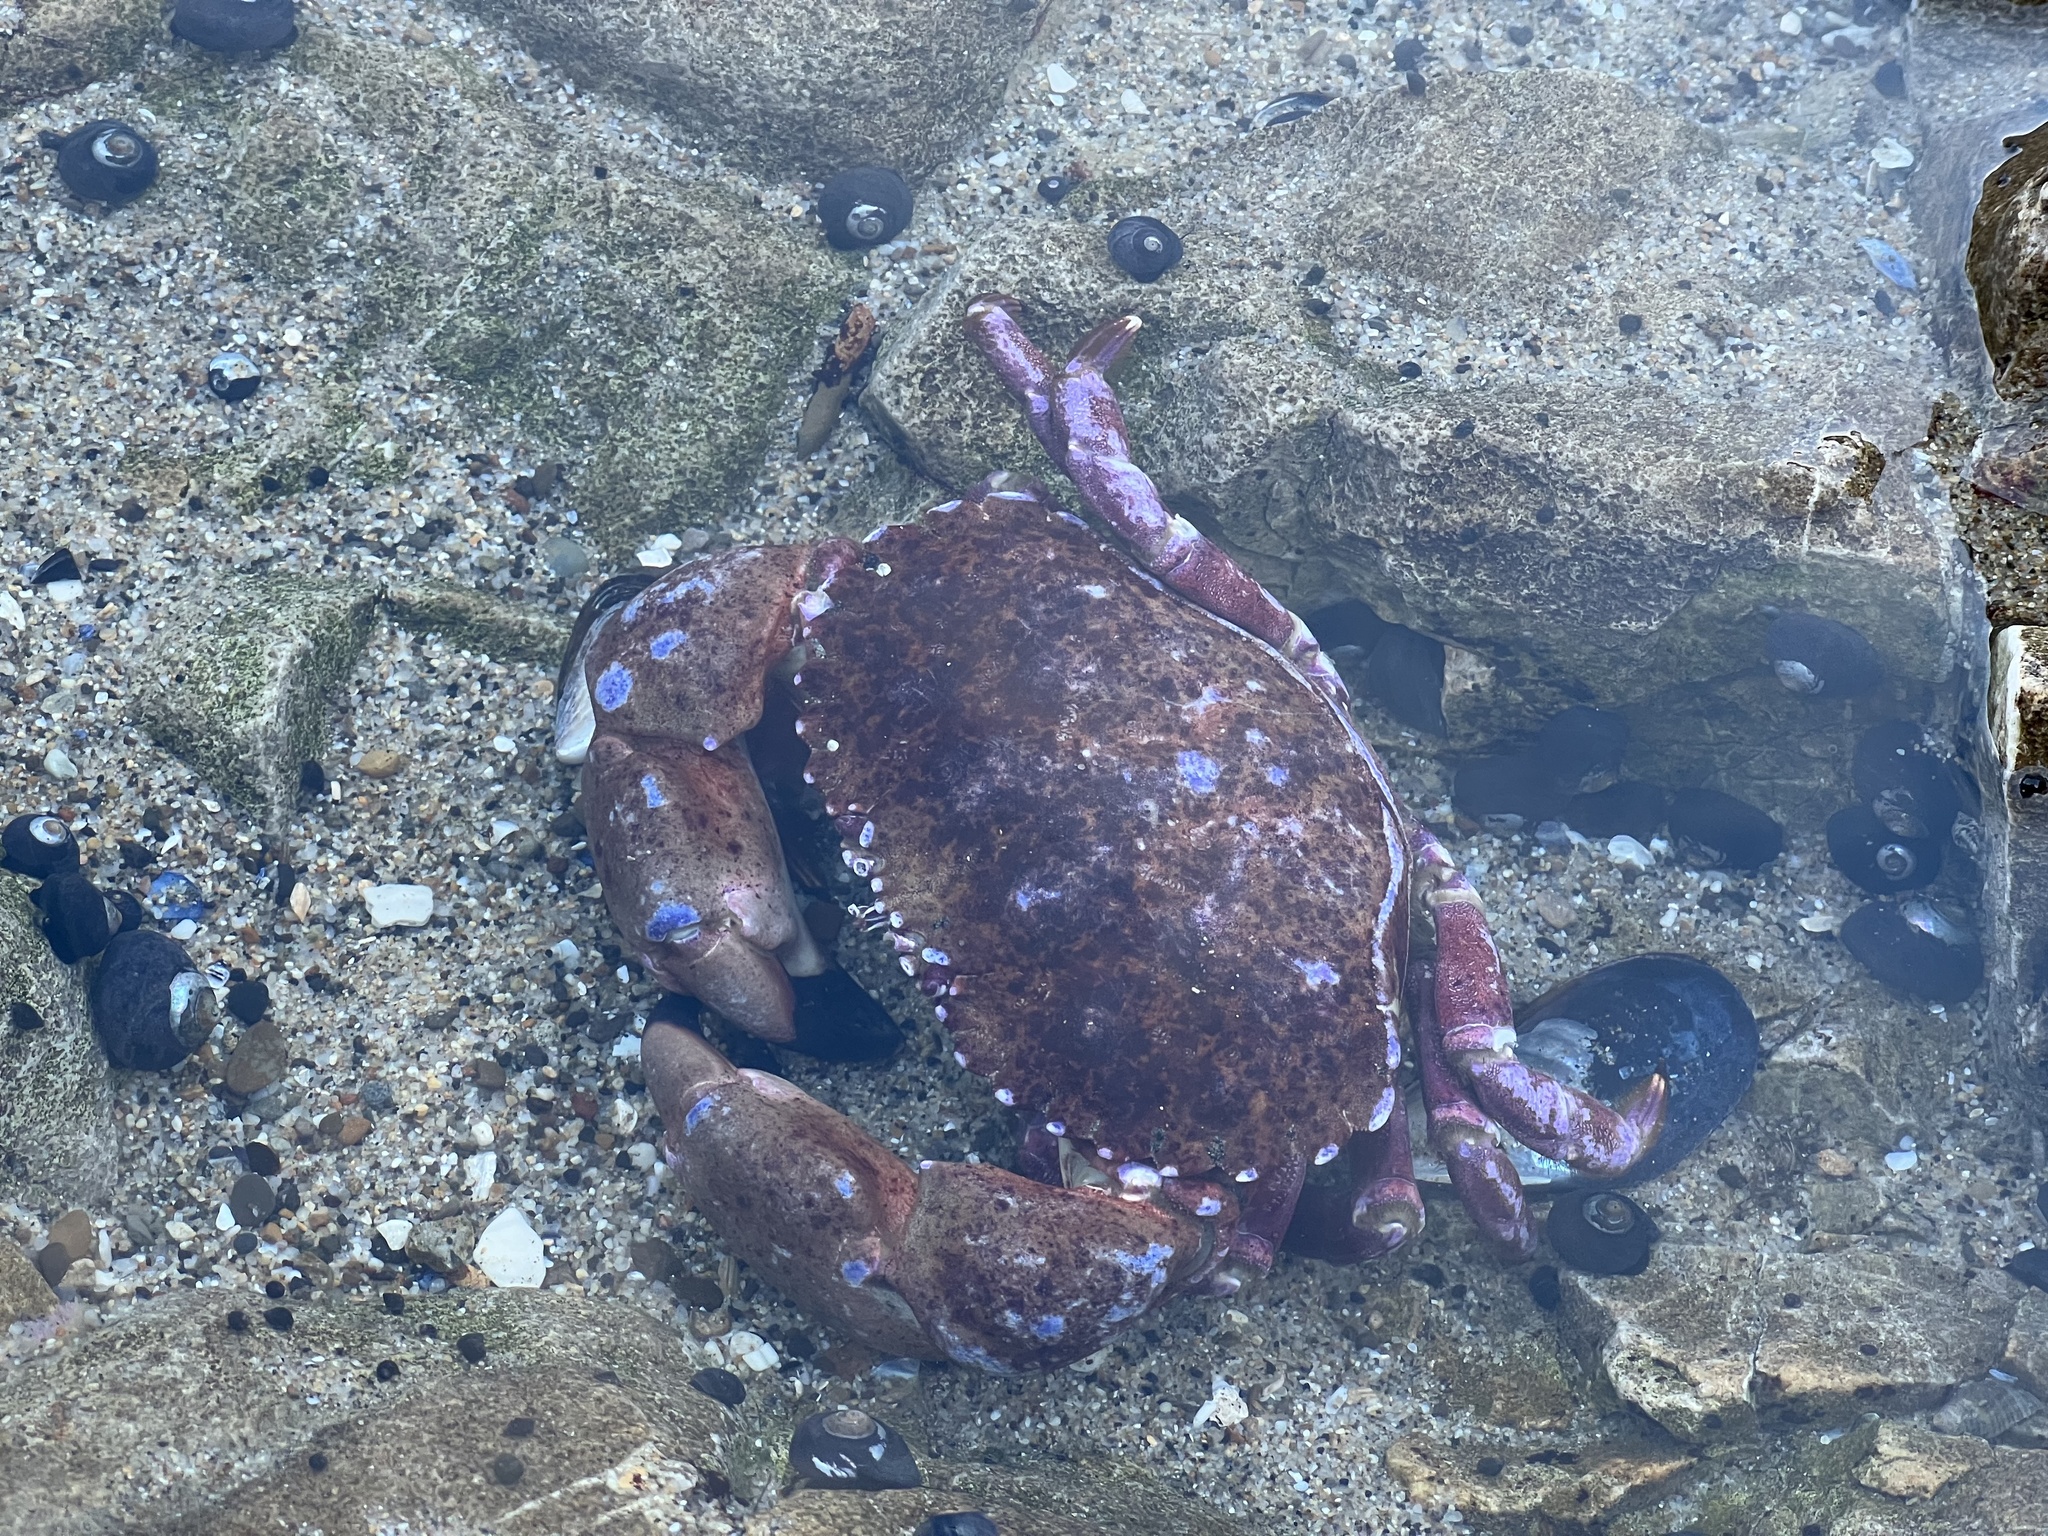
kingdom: Animalia
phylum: Arthropoda
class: Malacostraca
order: Decapoda
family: Cancridae
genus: Romaleon
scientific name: Romaleon antennarium
